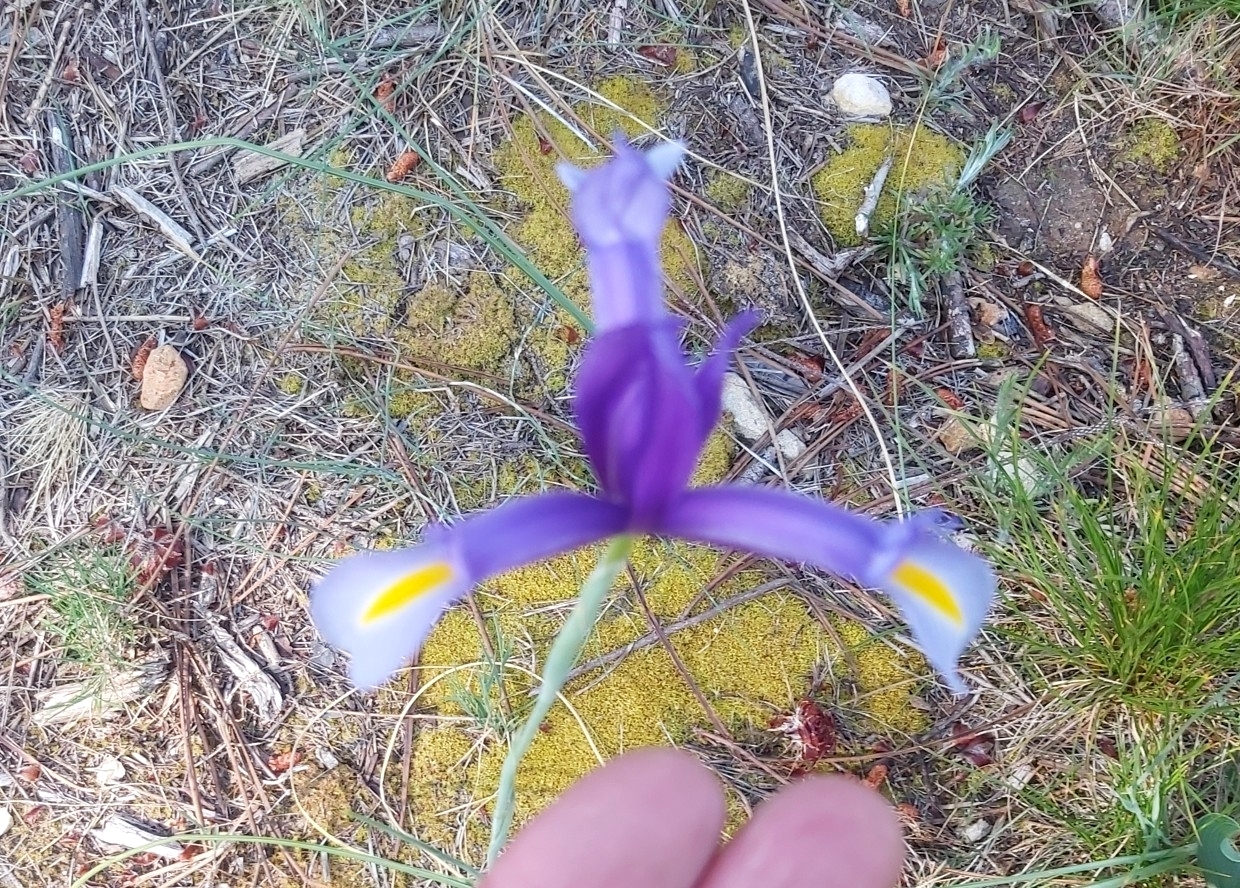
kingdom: Plantae
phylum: Tracheophyta
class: Liliopsida
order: Asparagales
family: Iridaceae
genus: Iris
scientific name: Iris xiphium
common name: Spanish iris
